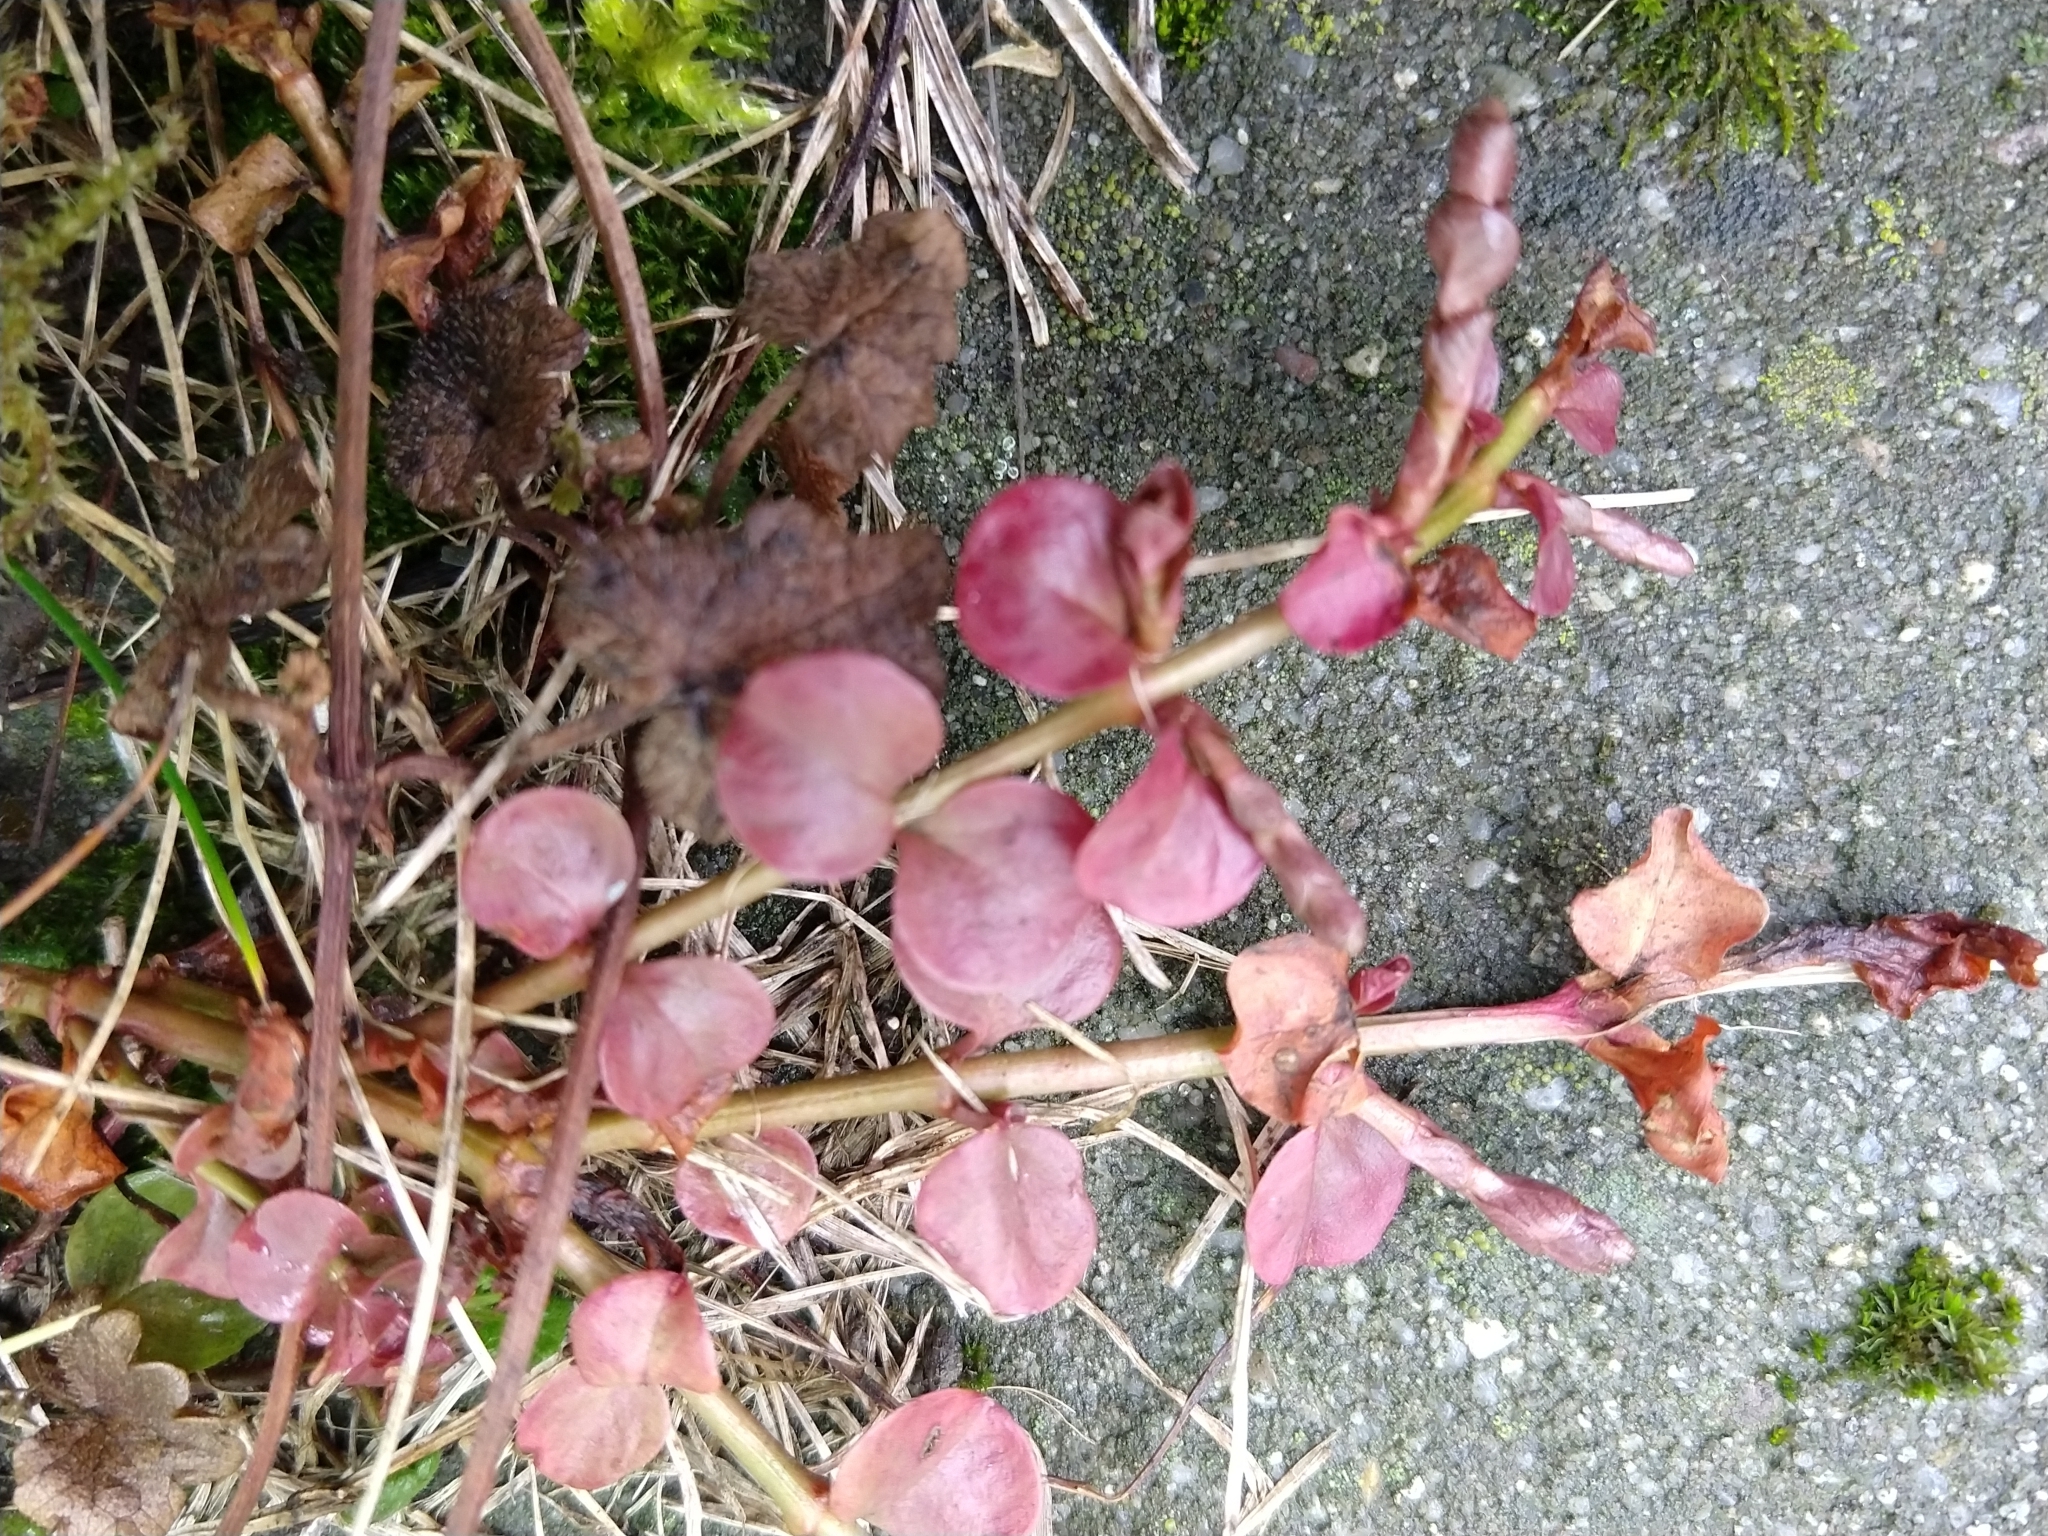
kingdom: Plantae
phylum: Tracheophyta
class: Magnoliopsida
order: Ericales
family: Primulaceae
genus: Lysimachia
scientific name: Lysimachia nummularia
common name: Moneywort
